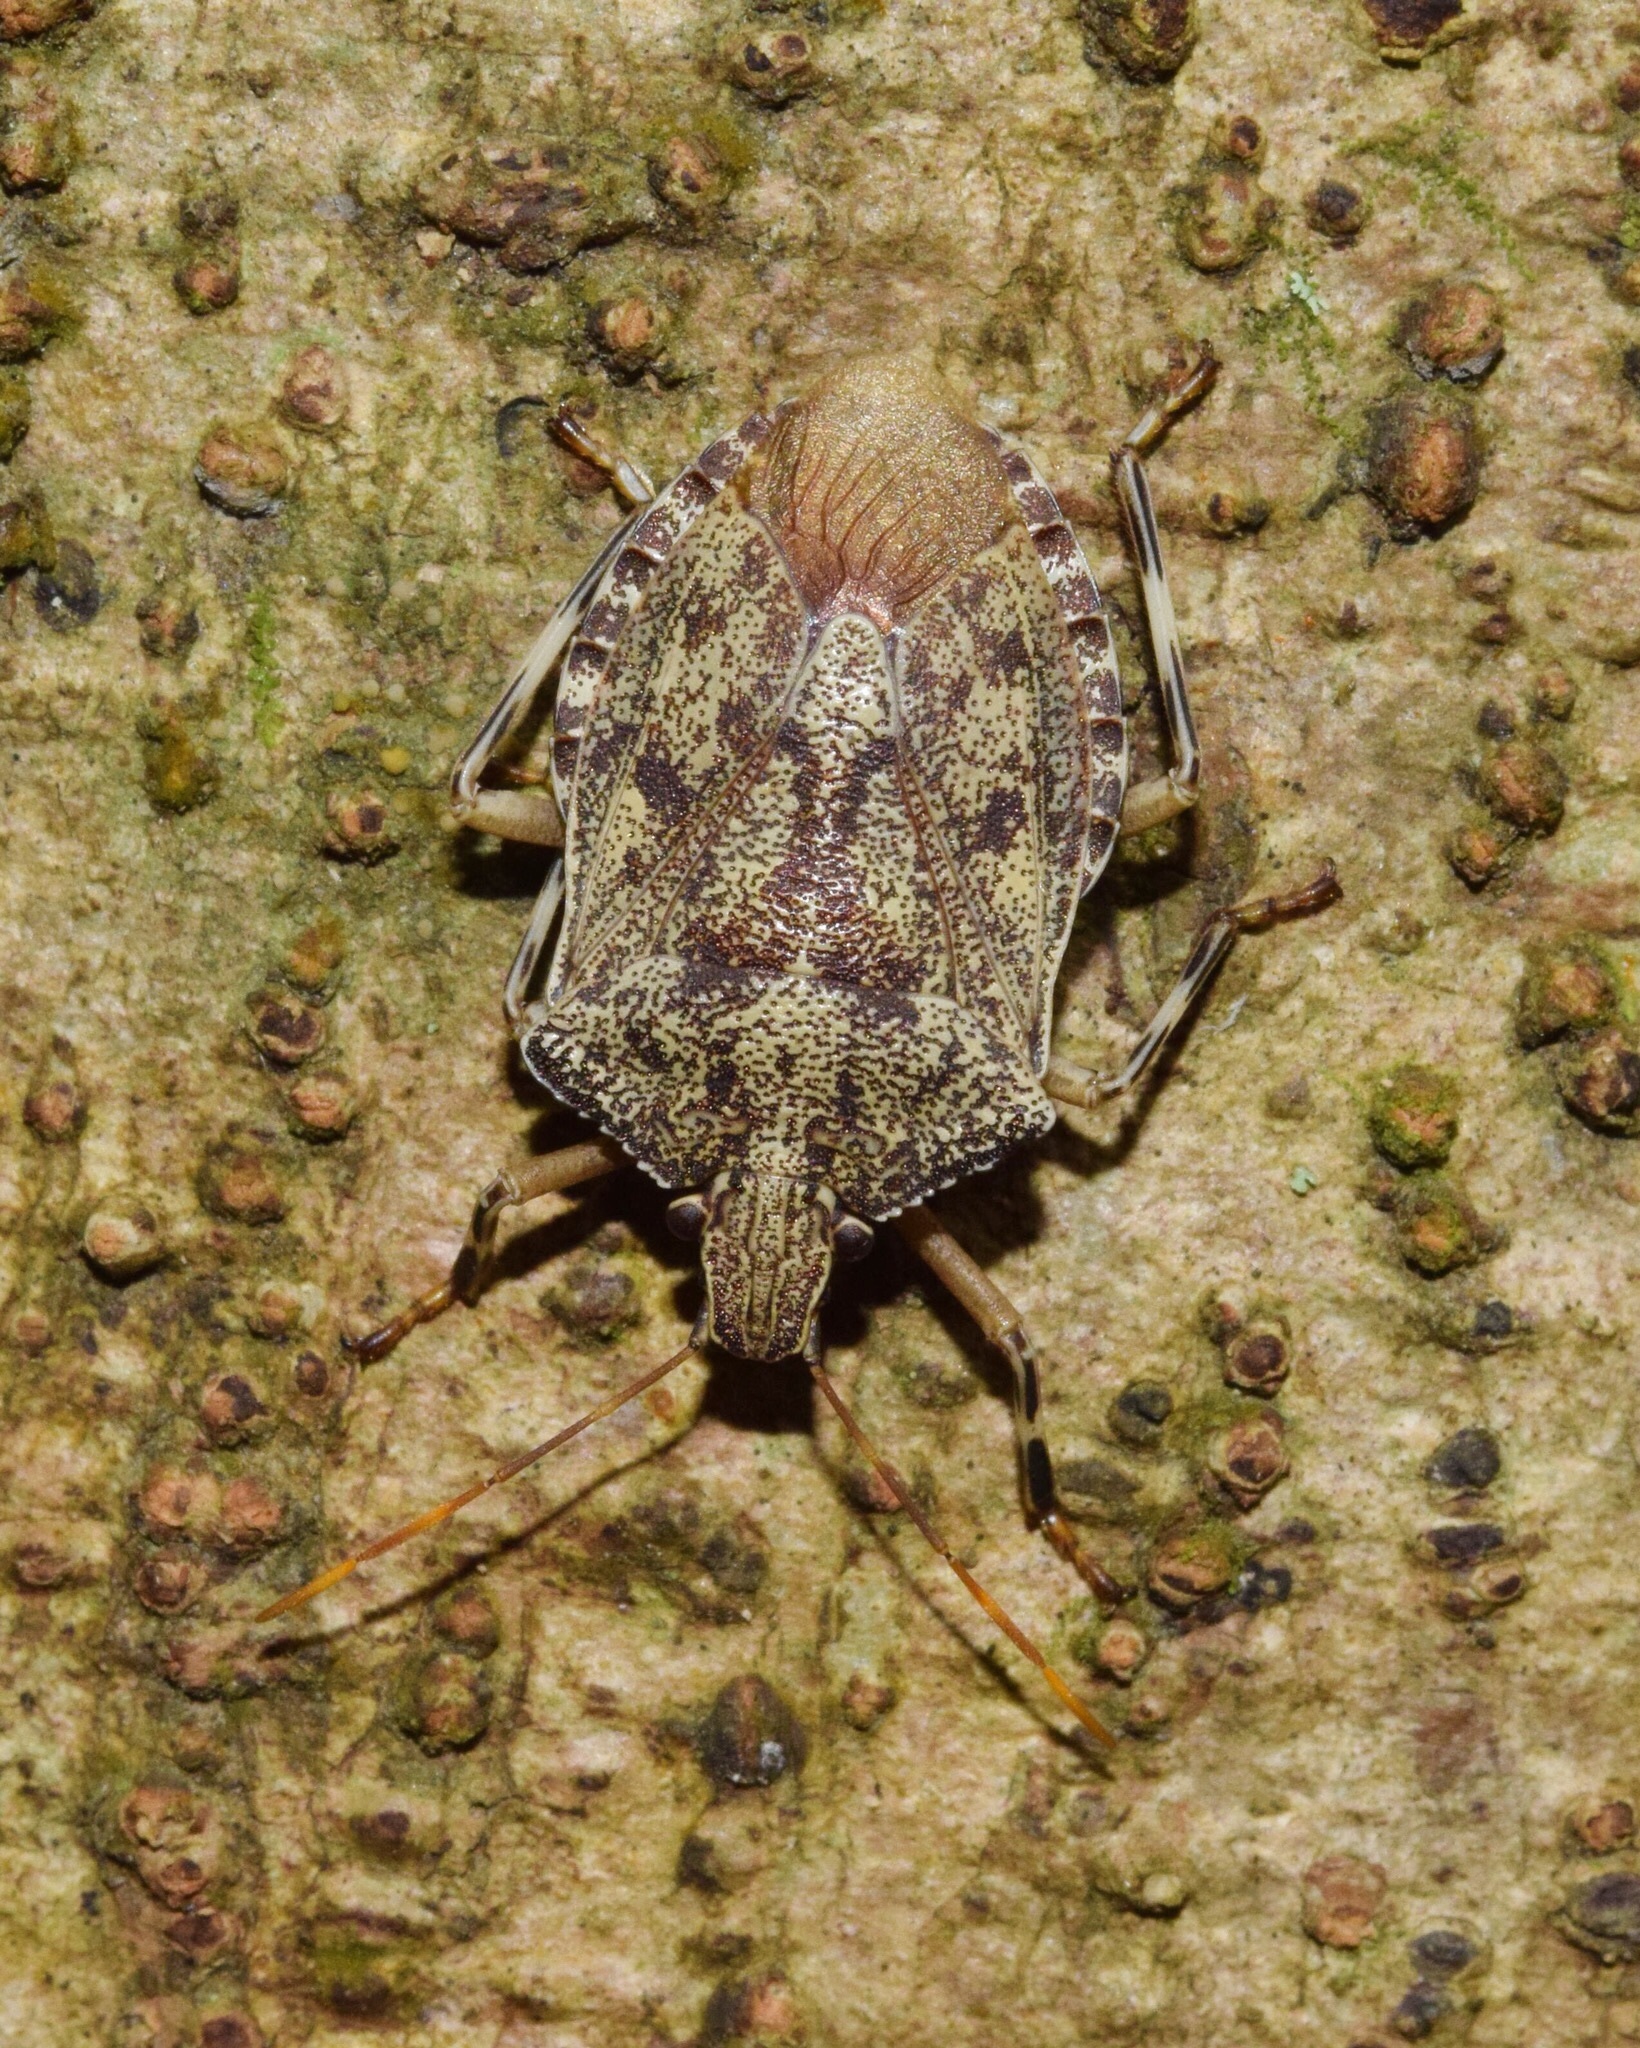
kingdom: Animalia
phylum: Arthropoda
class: Insecta
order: Hemiptera
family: Pentatomidae
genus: Coenomorpha
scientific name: Coenomorpha
